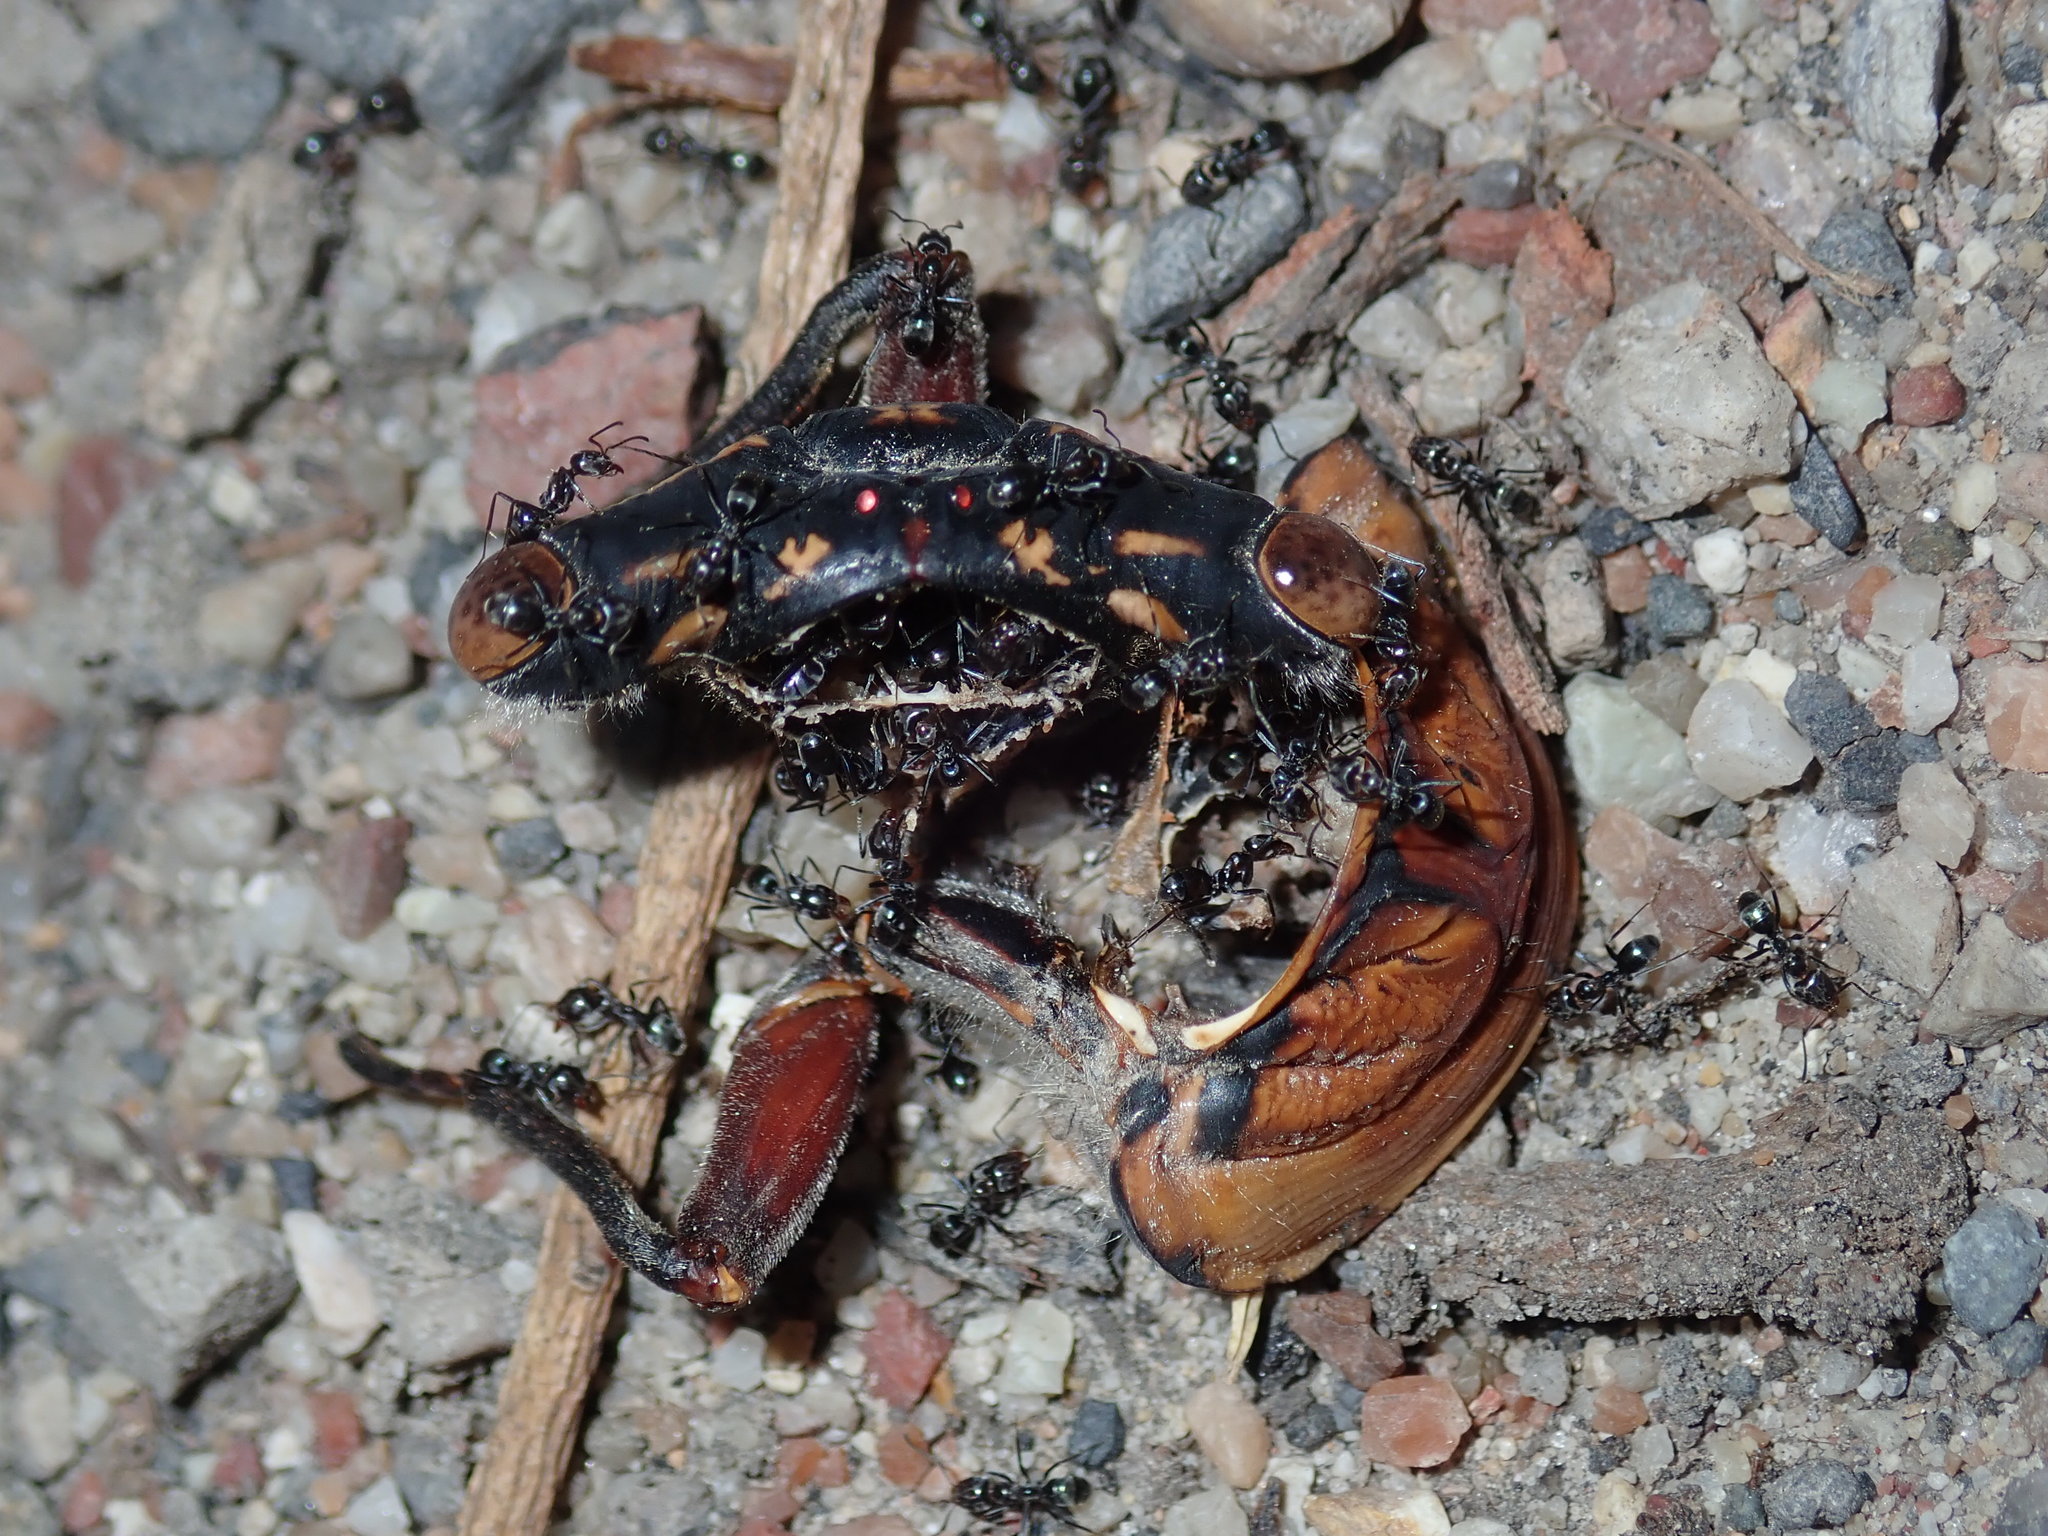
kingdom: Animalia
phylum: Arthropoda
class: Insecta
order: Hemiptera
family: Cicadidae
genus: Thopha
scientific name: Thopha saccata
